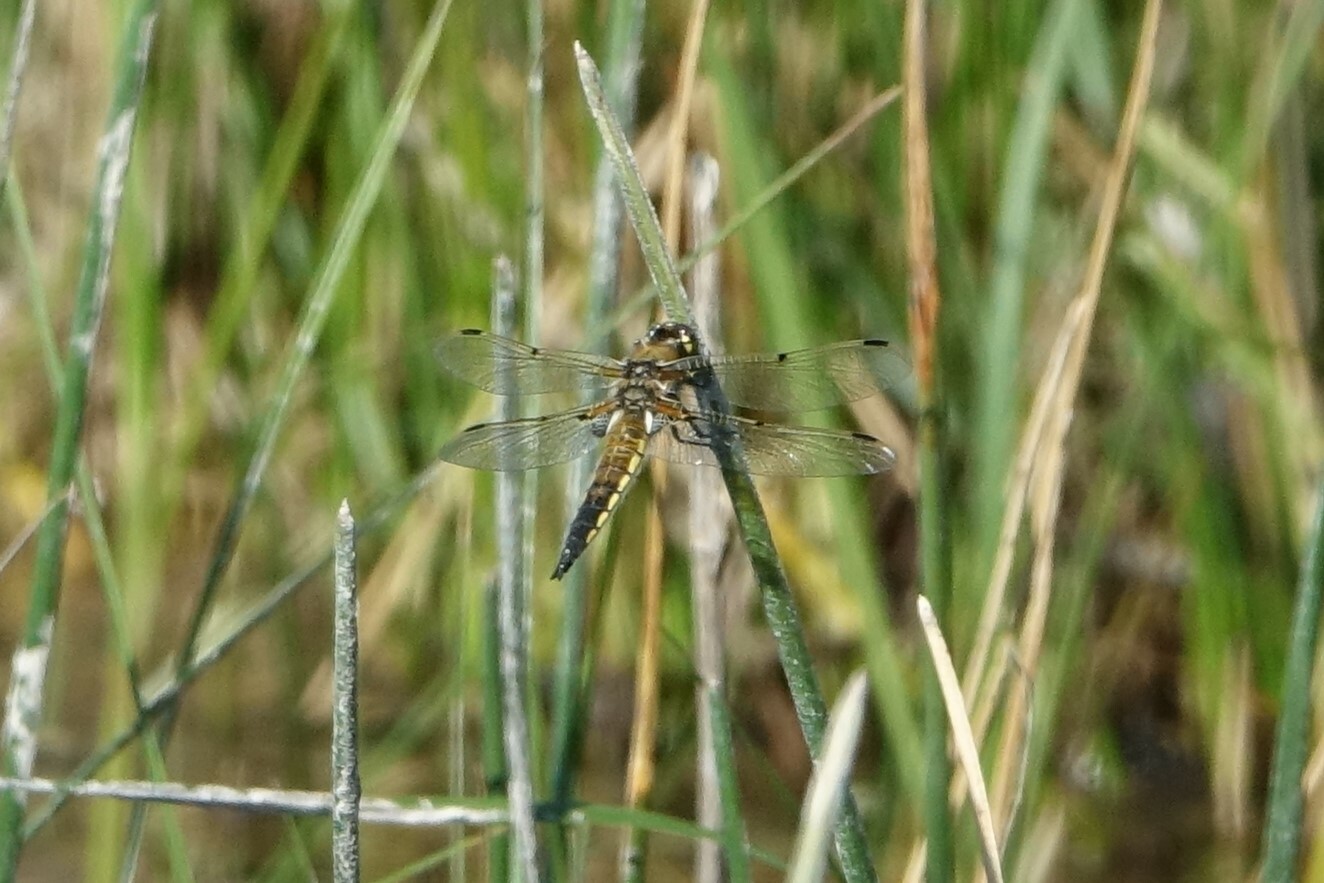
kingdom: Animalia
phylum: Arthropoda
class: Insecta
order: Odonata
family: Libellulidae
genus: Libellula
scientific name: Libellula quadrimaculata
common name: Four-spotted chaser
